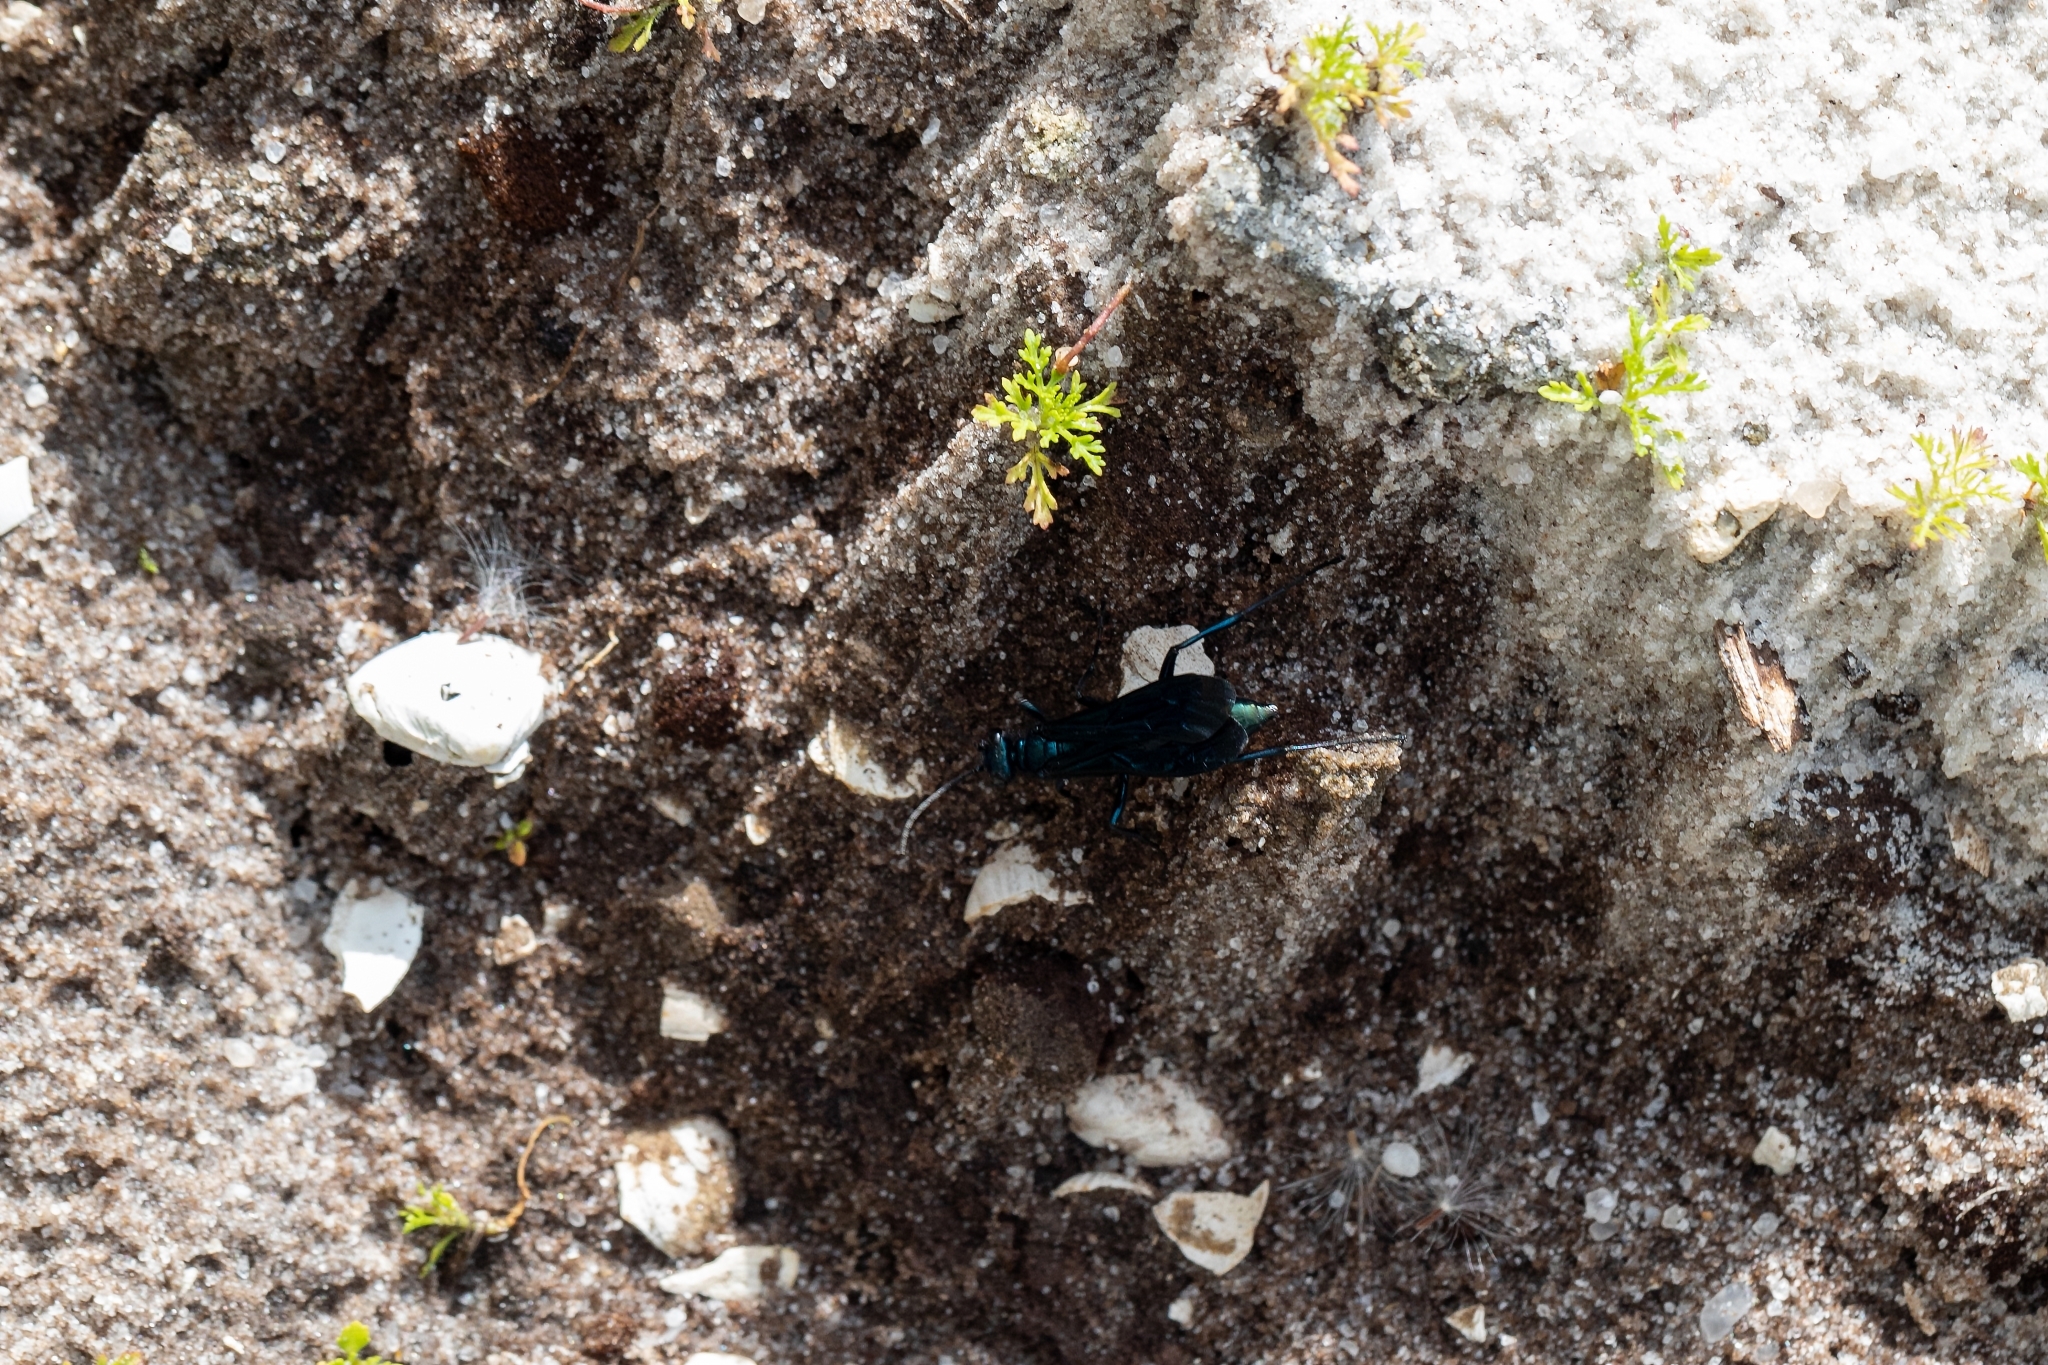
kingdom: Animalia
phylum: Arthropoda
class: Insecta
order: Hymenoptera
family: Sphecidae
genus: Chalybion
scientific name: Chalybion californicum
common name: Mud dauber
